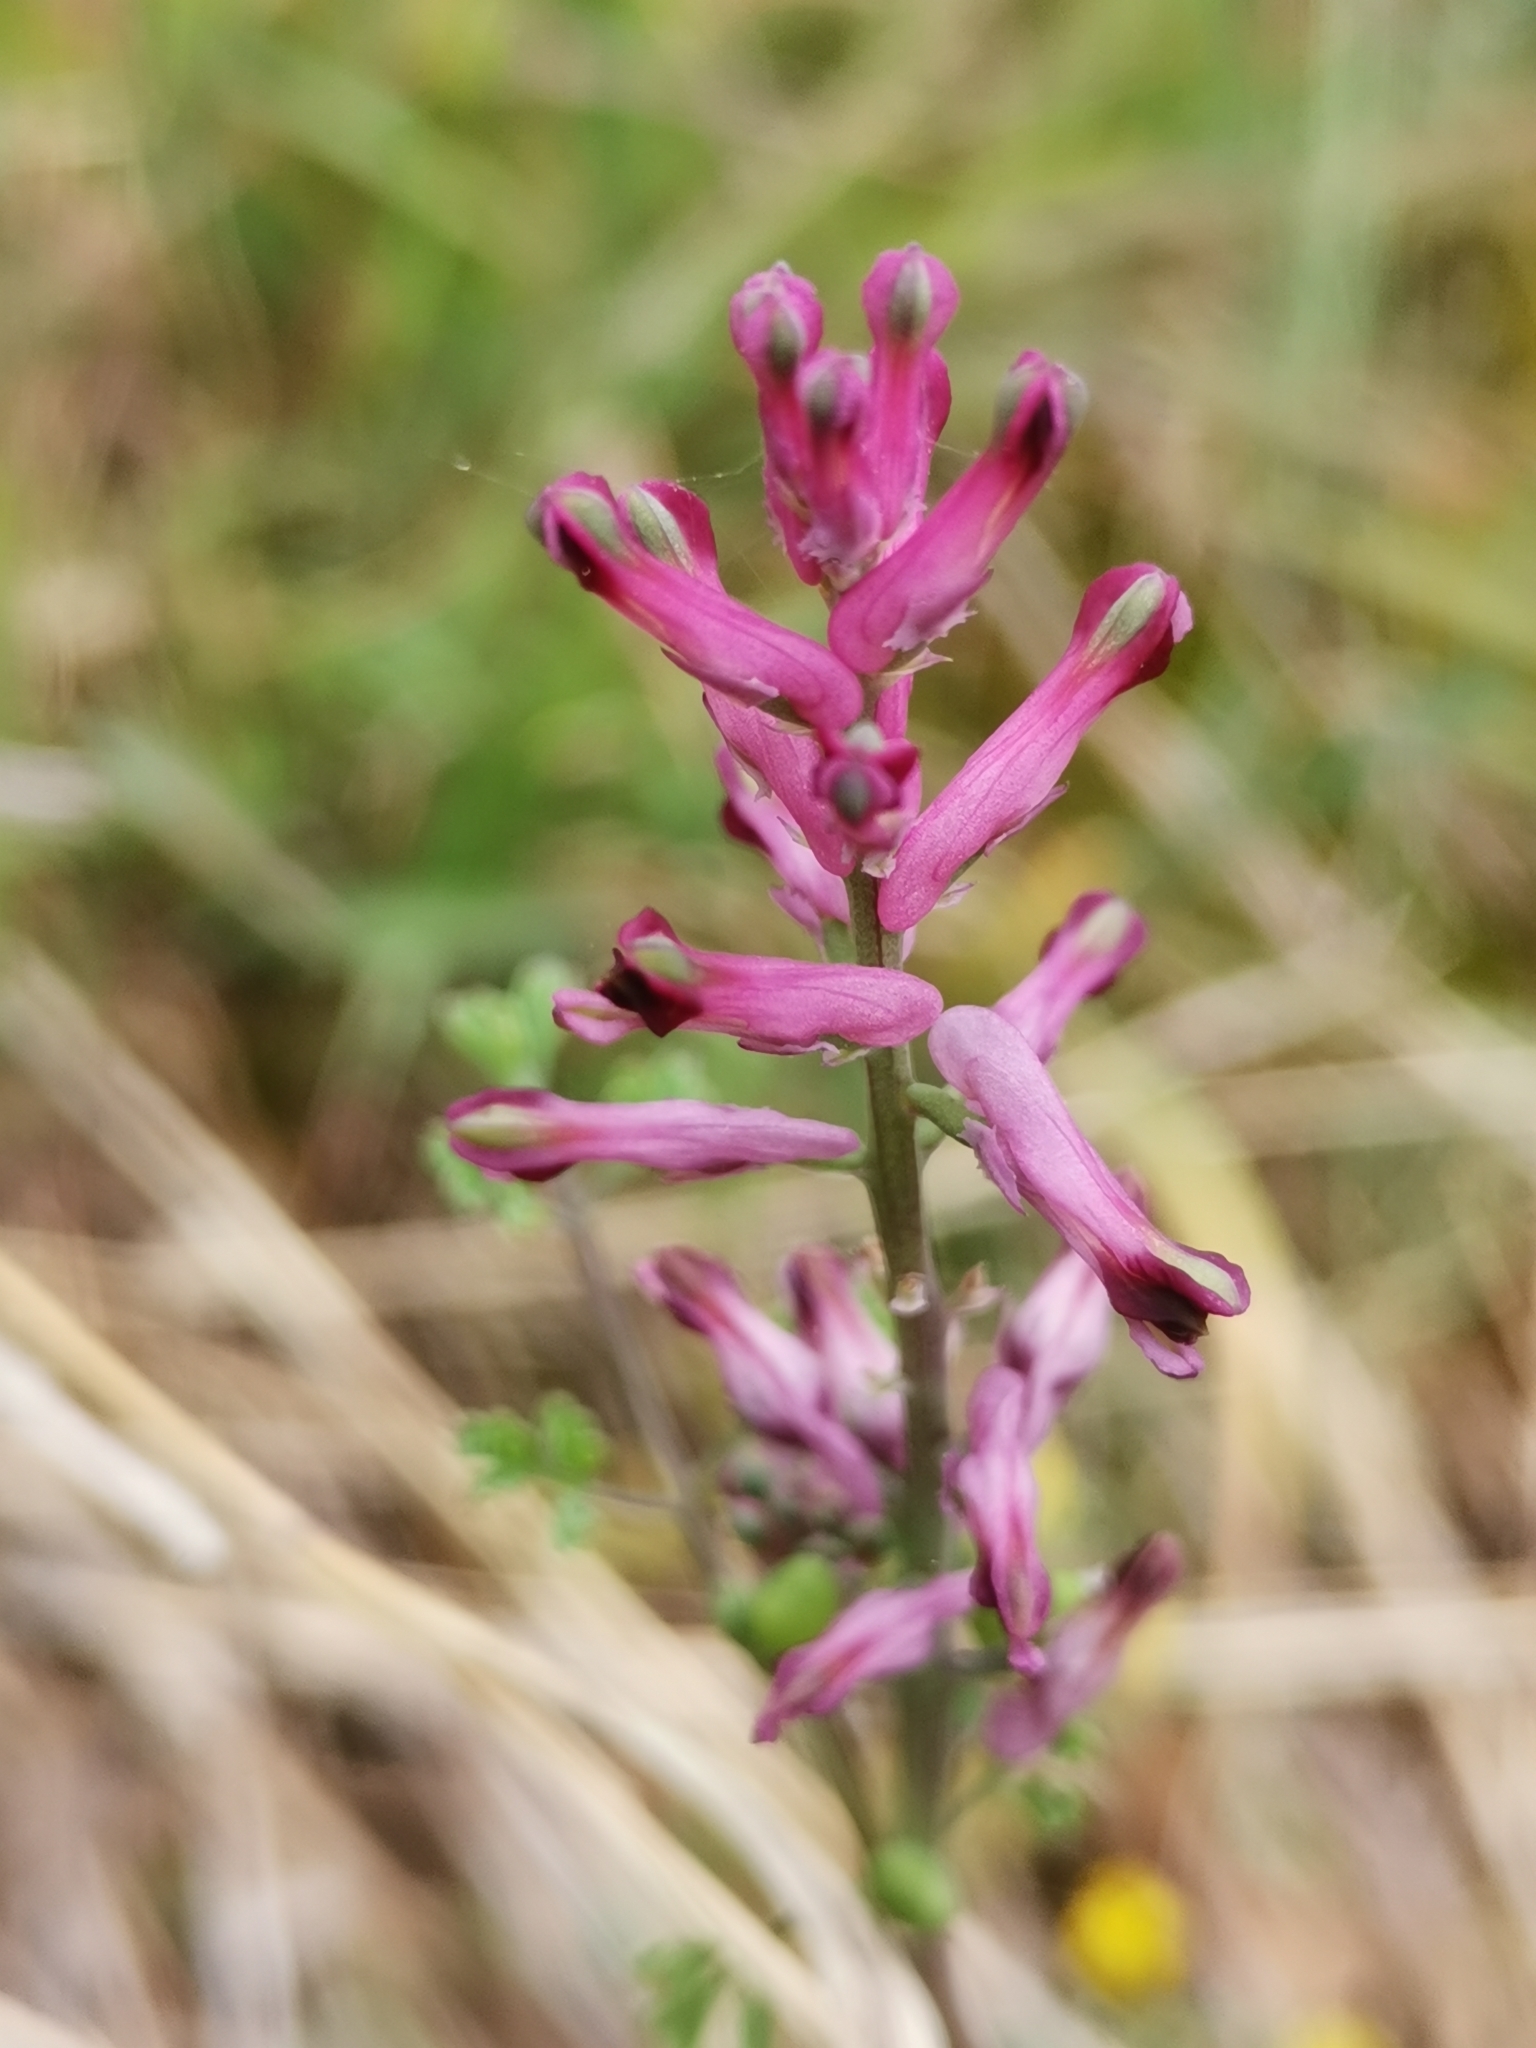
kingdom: Plantae
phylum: Tracheophyta
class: Magnoliopsida
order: Ranunculales
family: Papaveraceae
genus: Fumaria
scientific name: Fumaria officinalis
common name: Common fumitory
